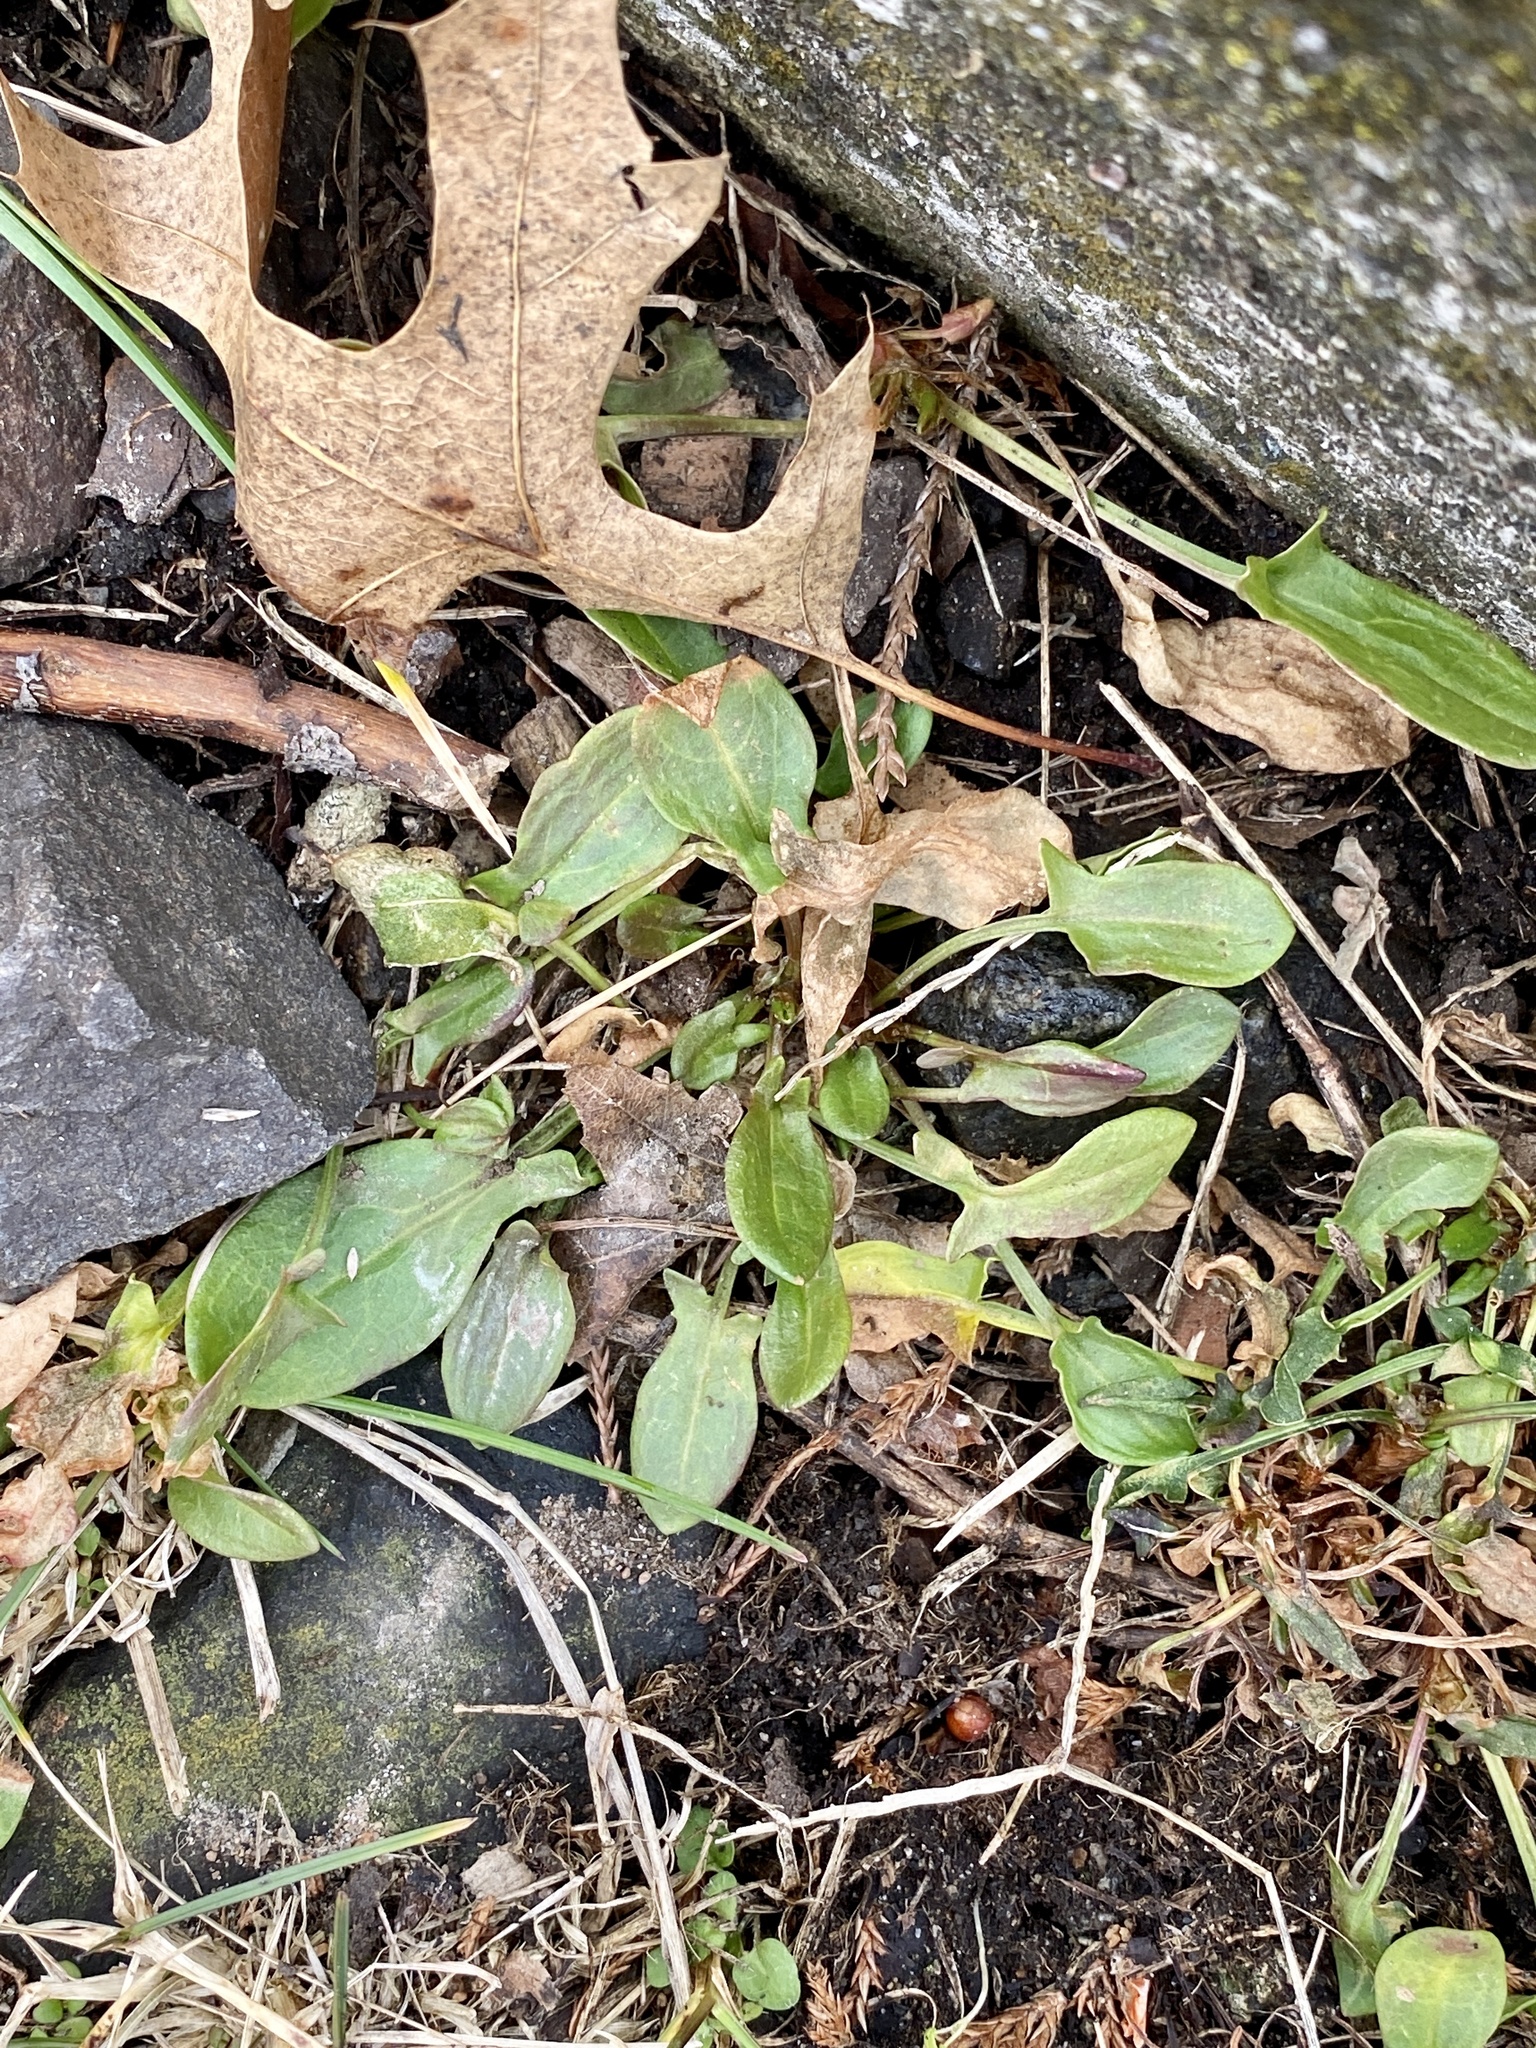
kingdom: Plantae
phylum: Tracheophyta
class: Magnoliopsida
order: Caryophyllales
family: Polygonaceae
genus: Rumex
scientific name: Rumex acetosella
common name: Common sheep sorrel
